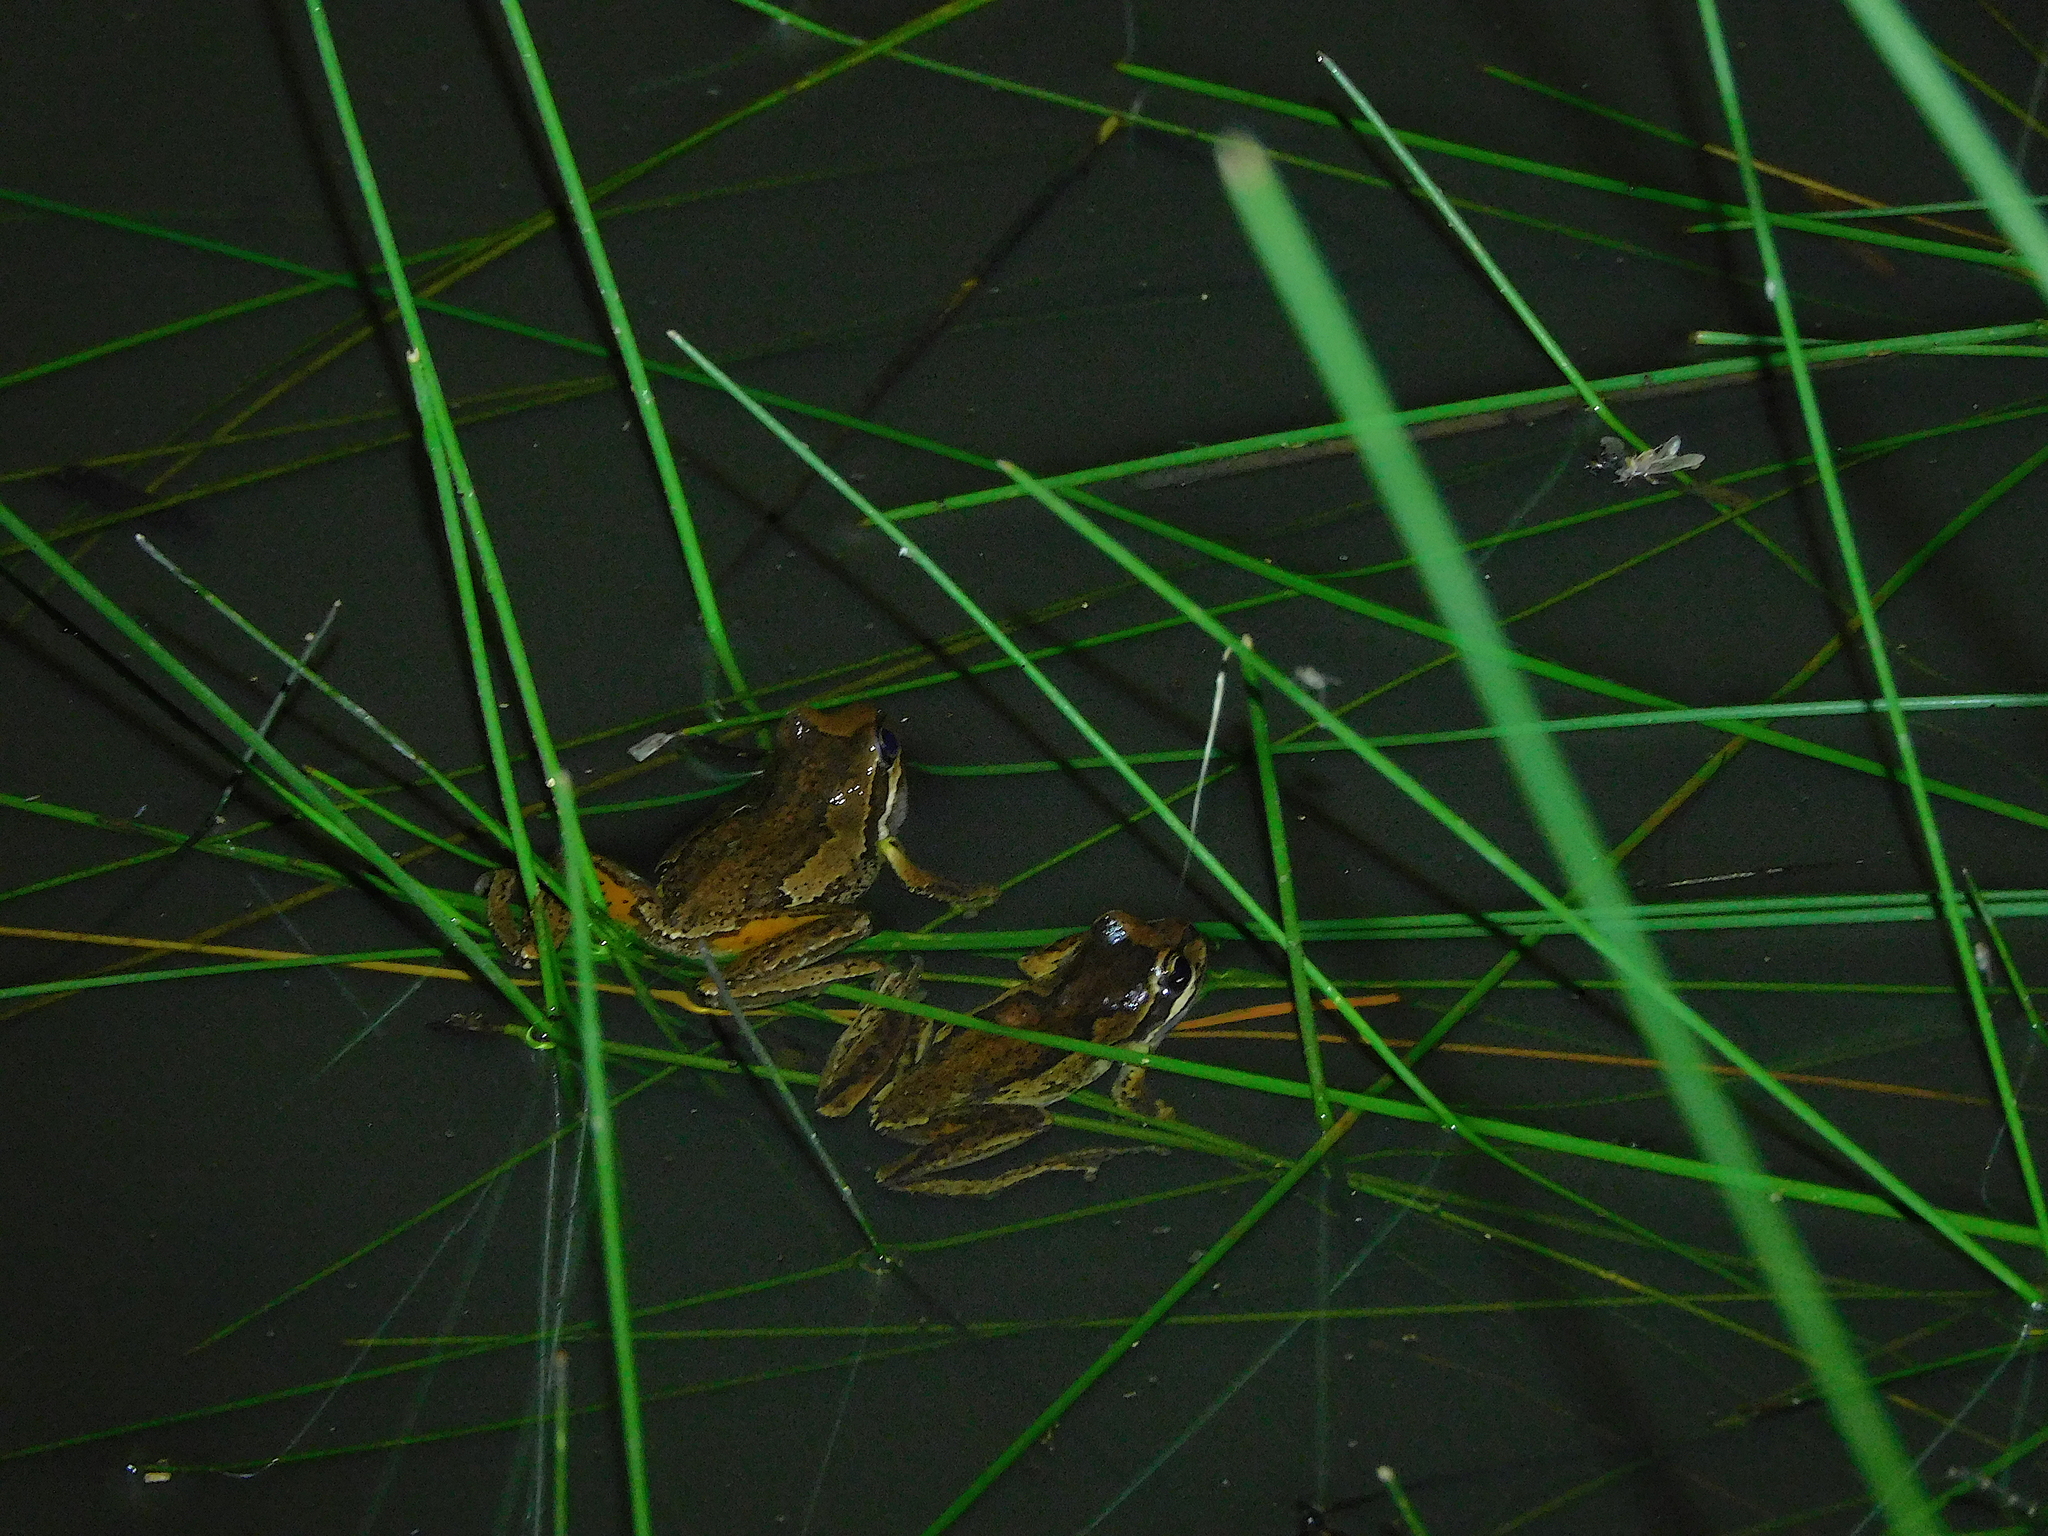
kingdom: Animalia
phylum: Chordata
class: Amphibia
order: Anura
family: Pelodryadidae
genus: Litoria
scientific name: Litoria ewingii
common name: Southern brown tree frog
